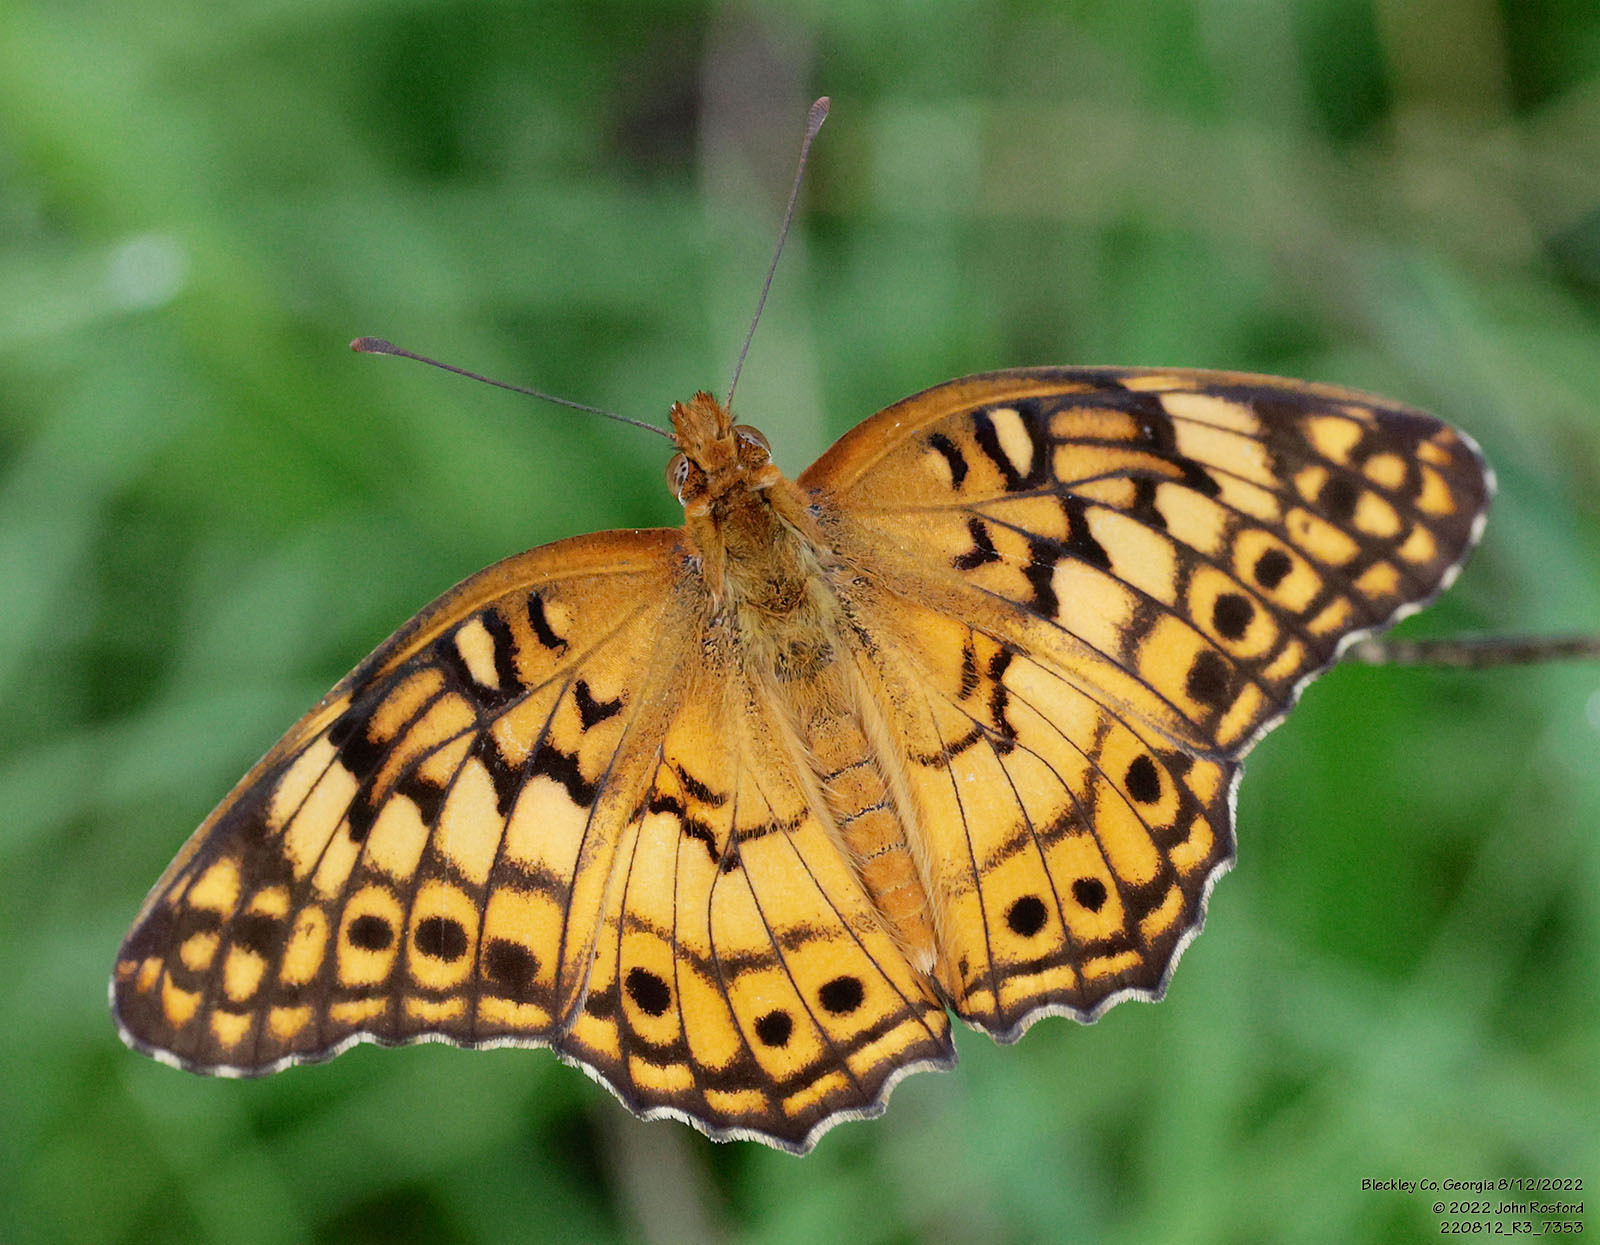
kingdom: Animalia
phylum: Arthropoda
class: Insecta
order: Lepidoptera
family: Nymphalidae
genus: Euptoieta
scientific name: Euptoieta claudia
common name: Variegated fritillary
